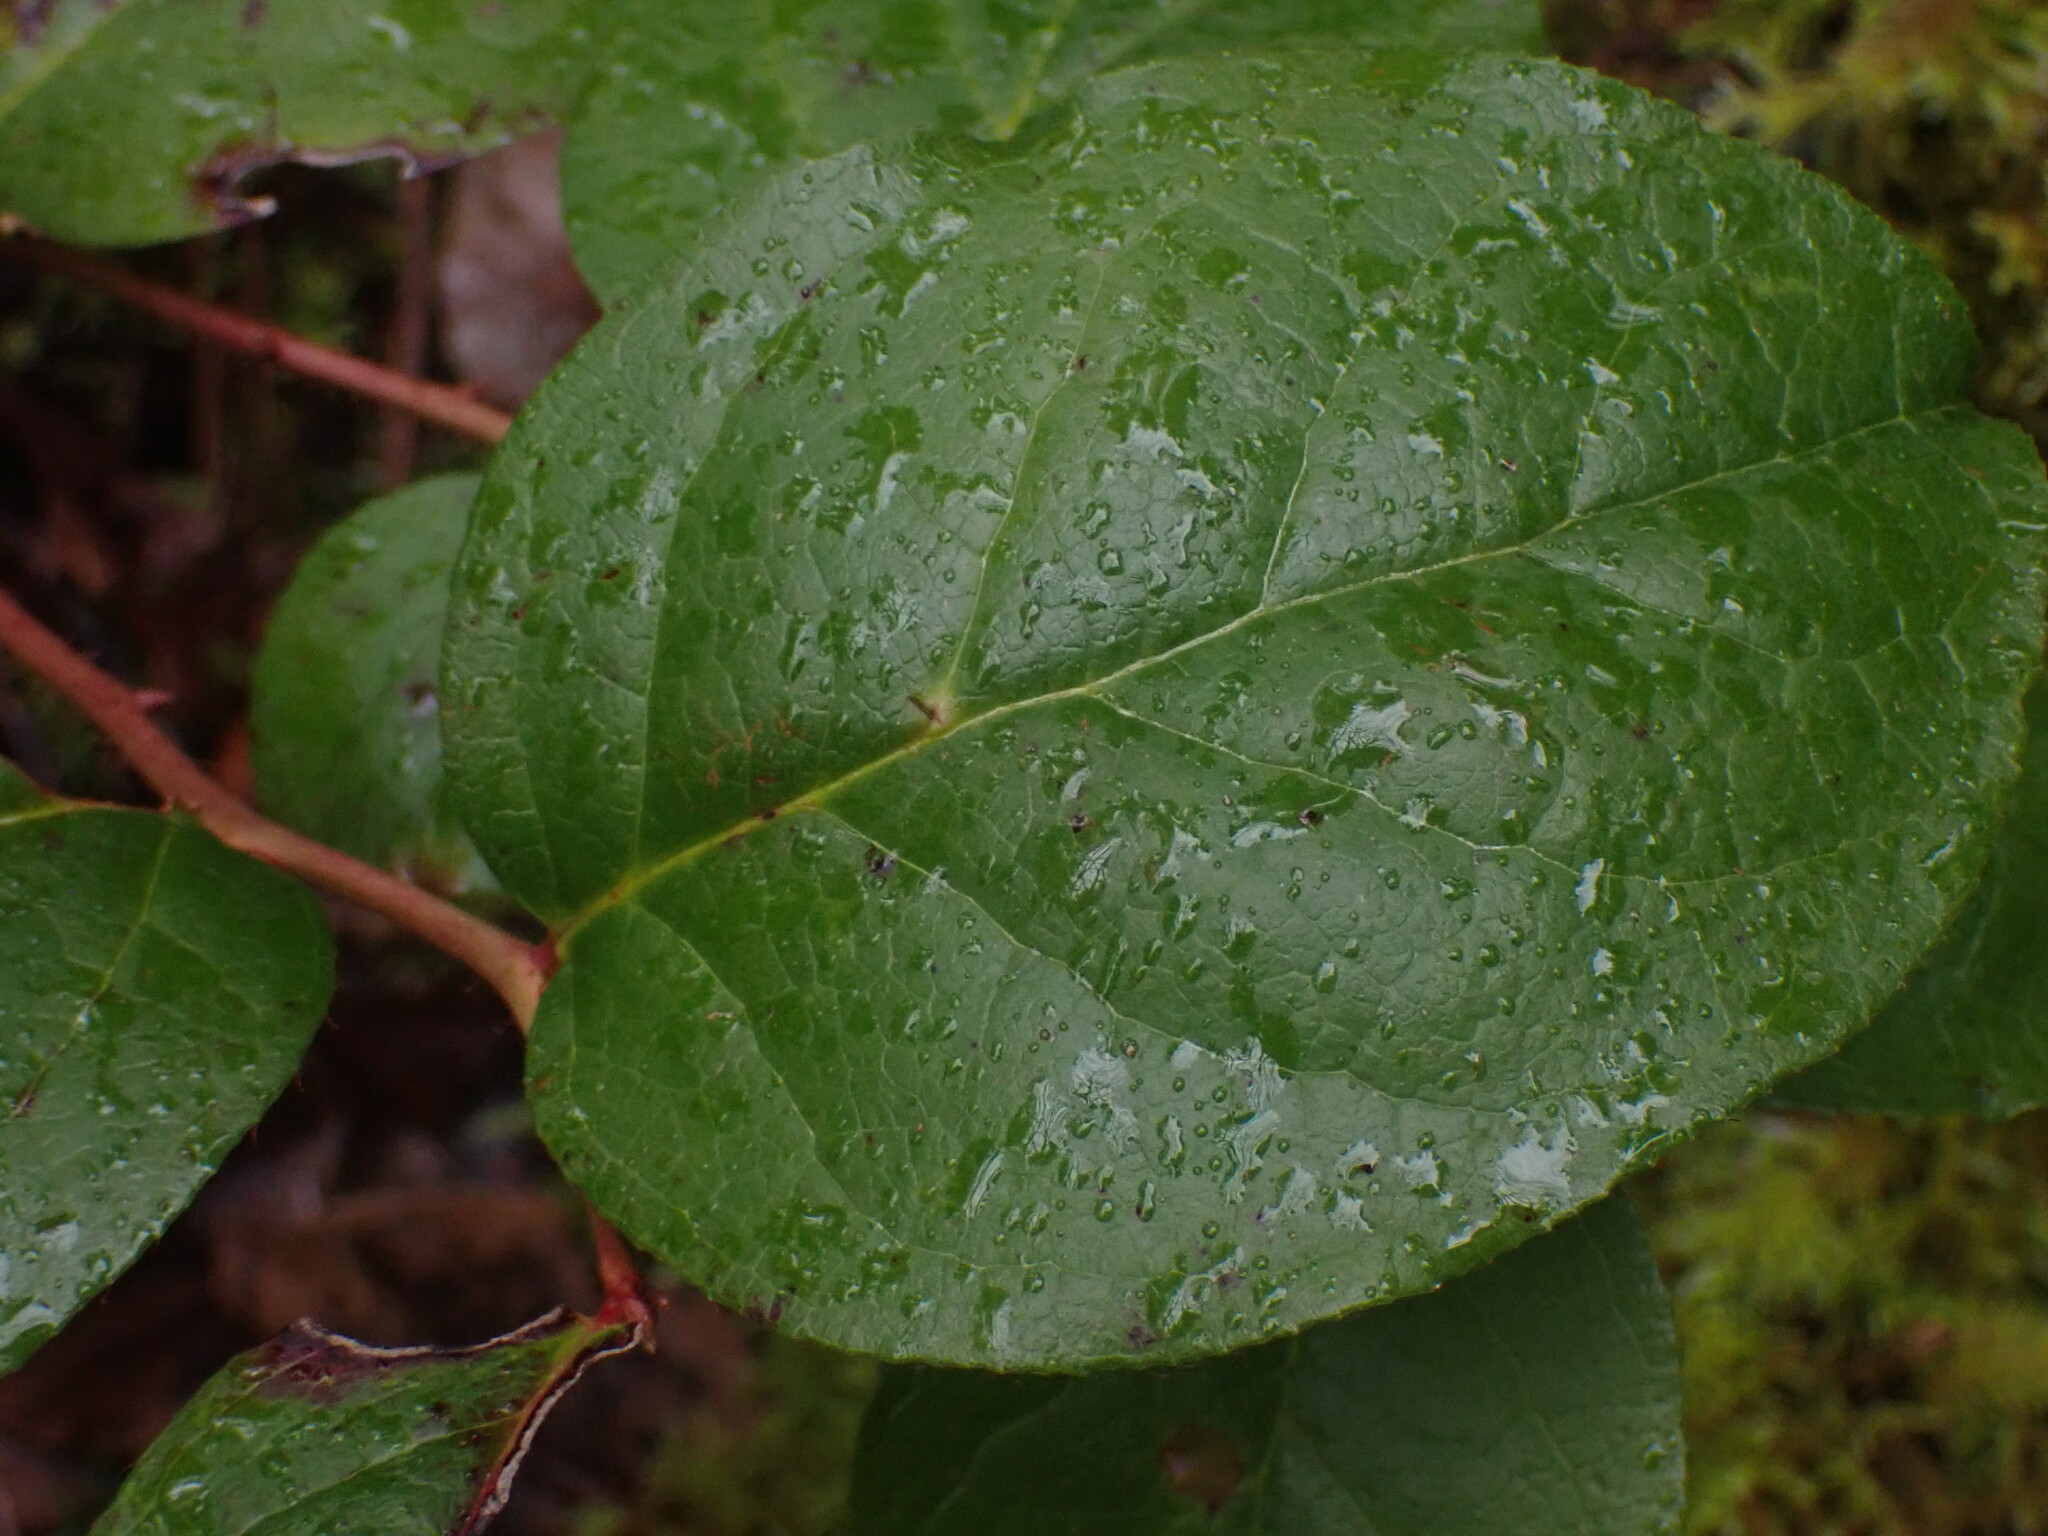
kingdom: Plantae
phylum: Tracheophyta
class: Magnoliopsida
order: Ericales
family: Ericaceae
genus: Gaultheria
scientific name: Gaultheria shallon
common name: Shallon
